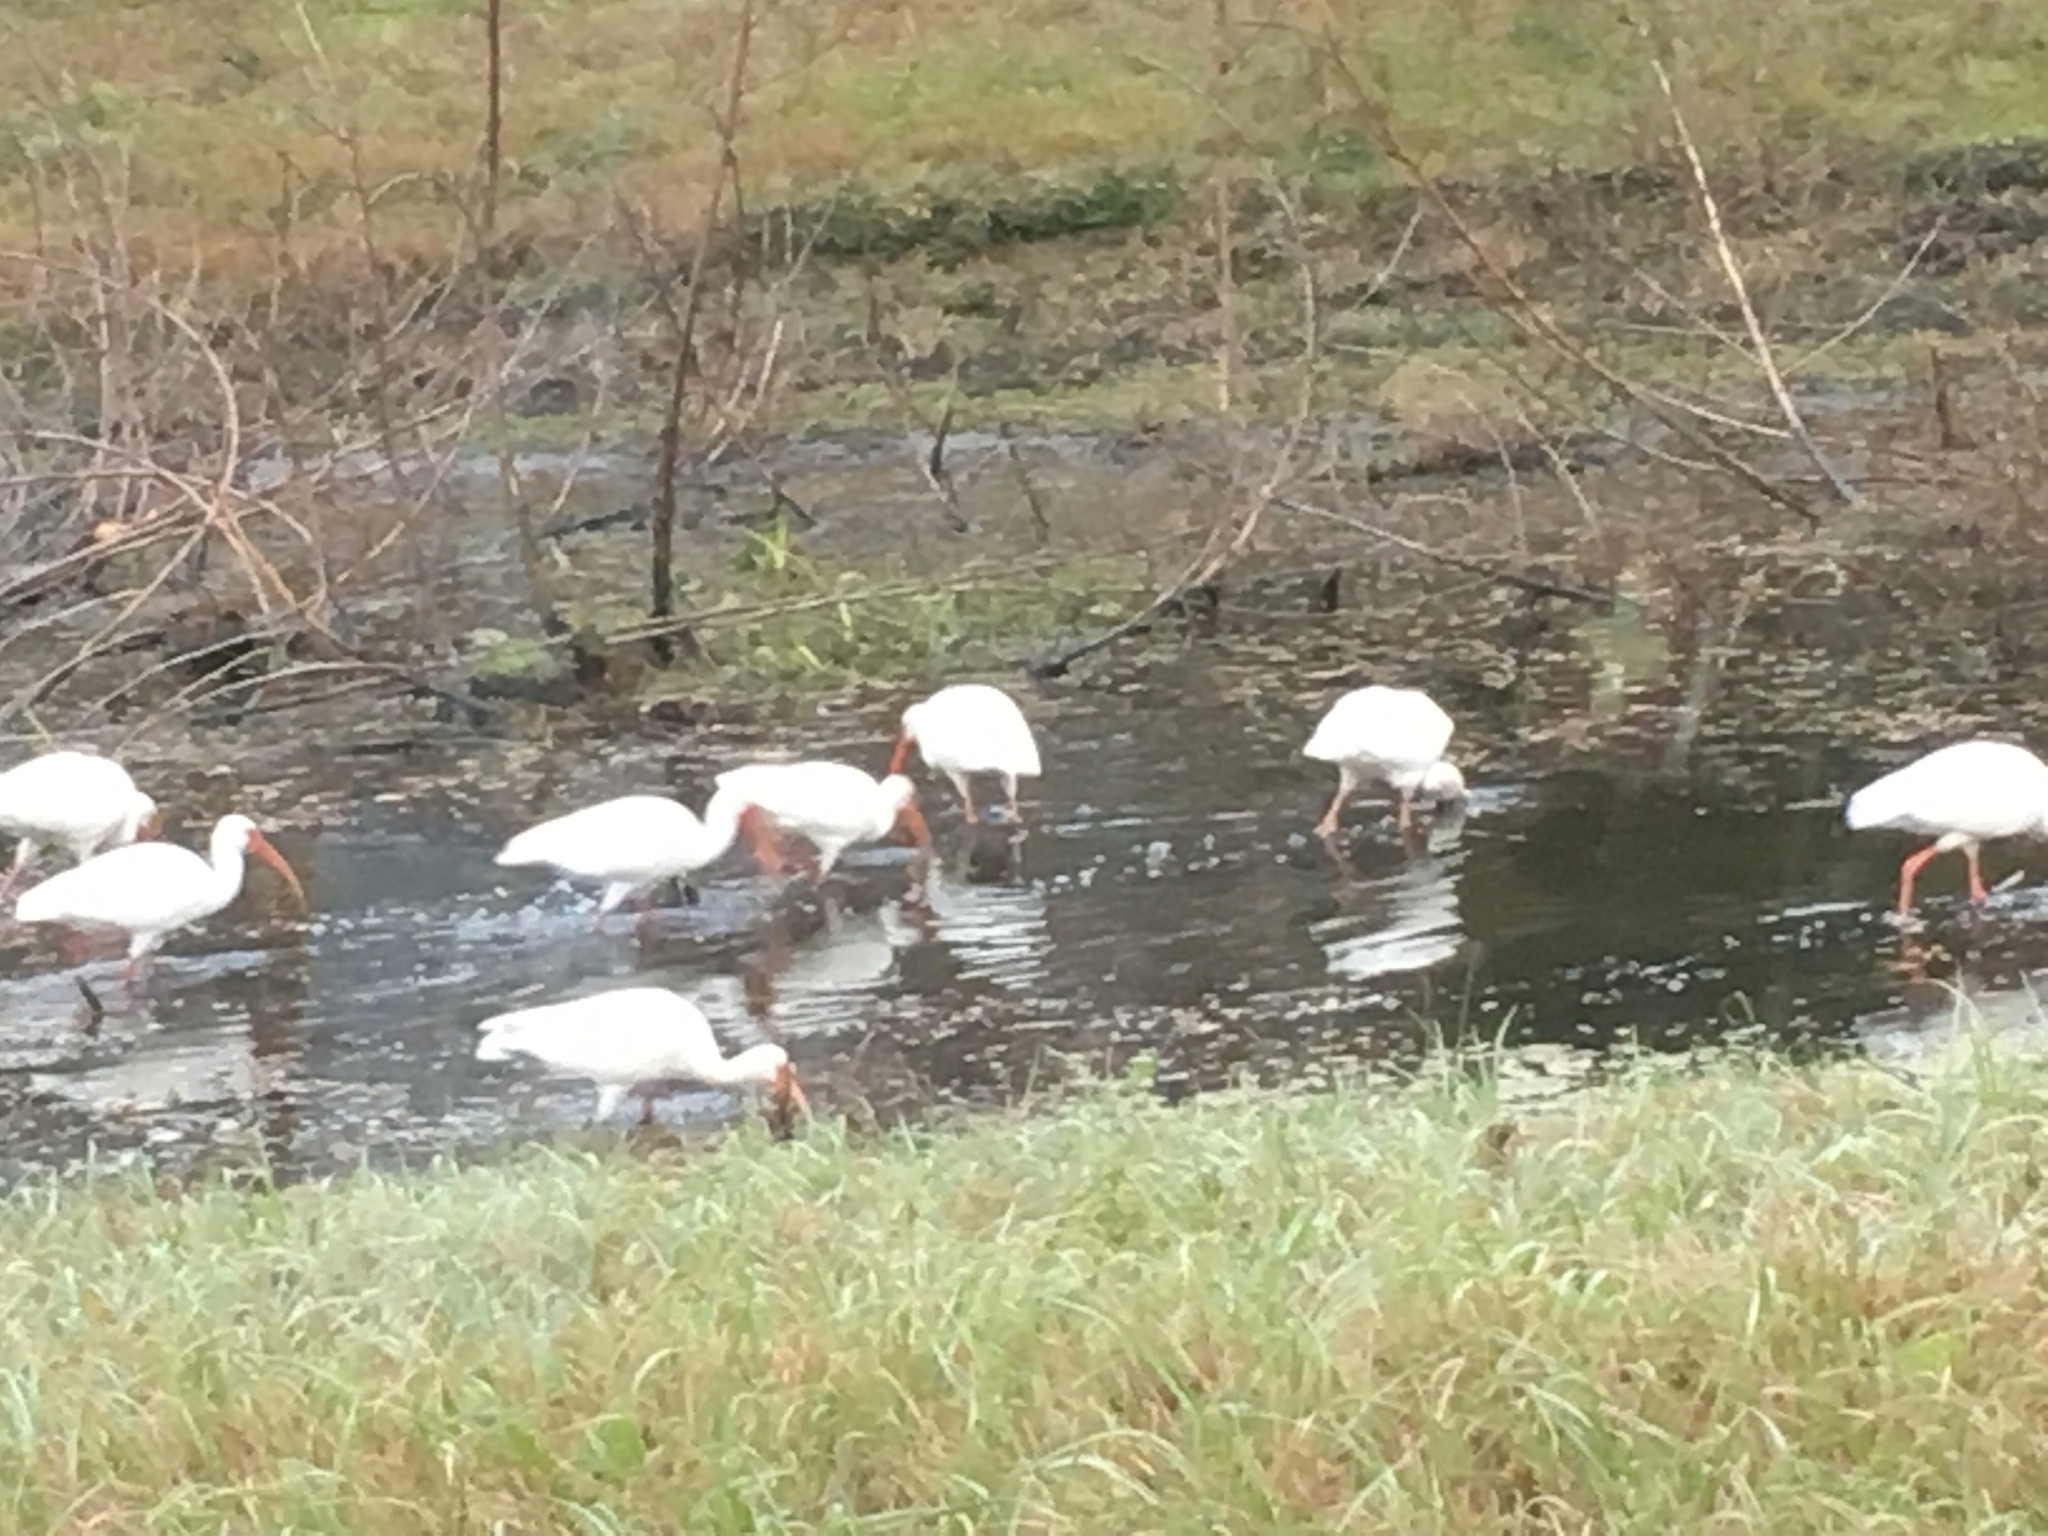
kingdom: Animalia
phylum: Chordata
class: Aves
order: Pelecaniformes
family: Threskiornithidae
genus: Eudocimus
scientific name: Eudocimus albus
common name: White ibis
